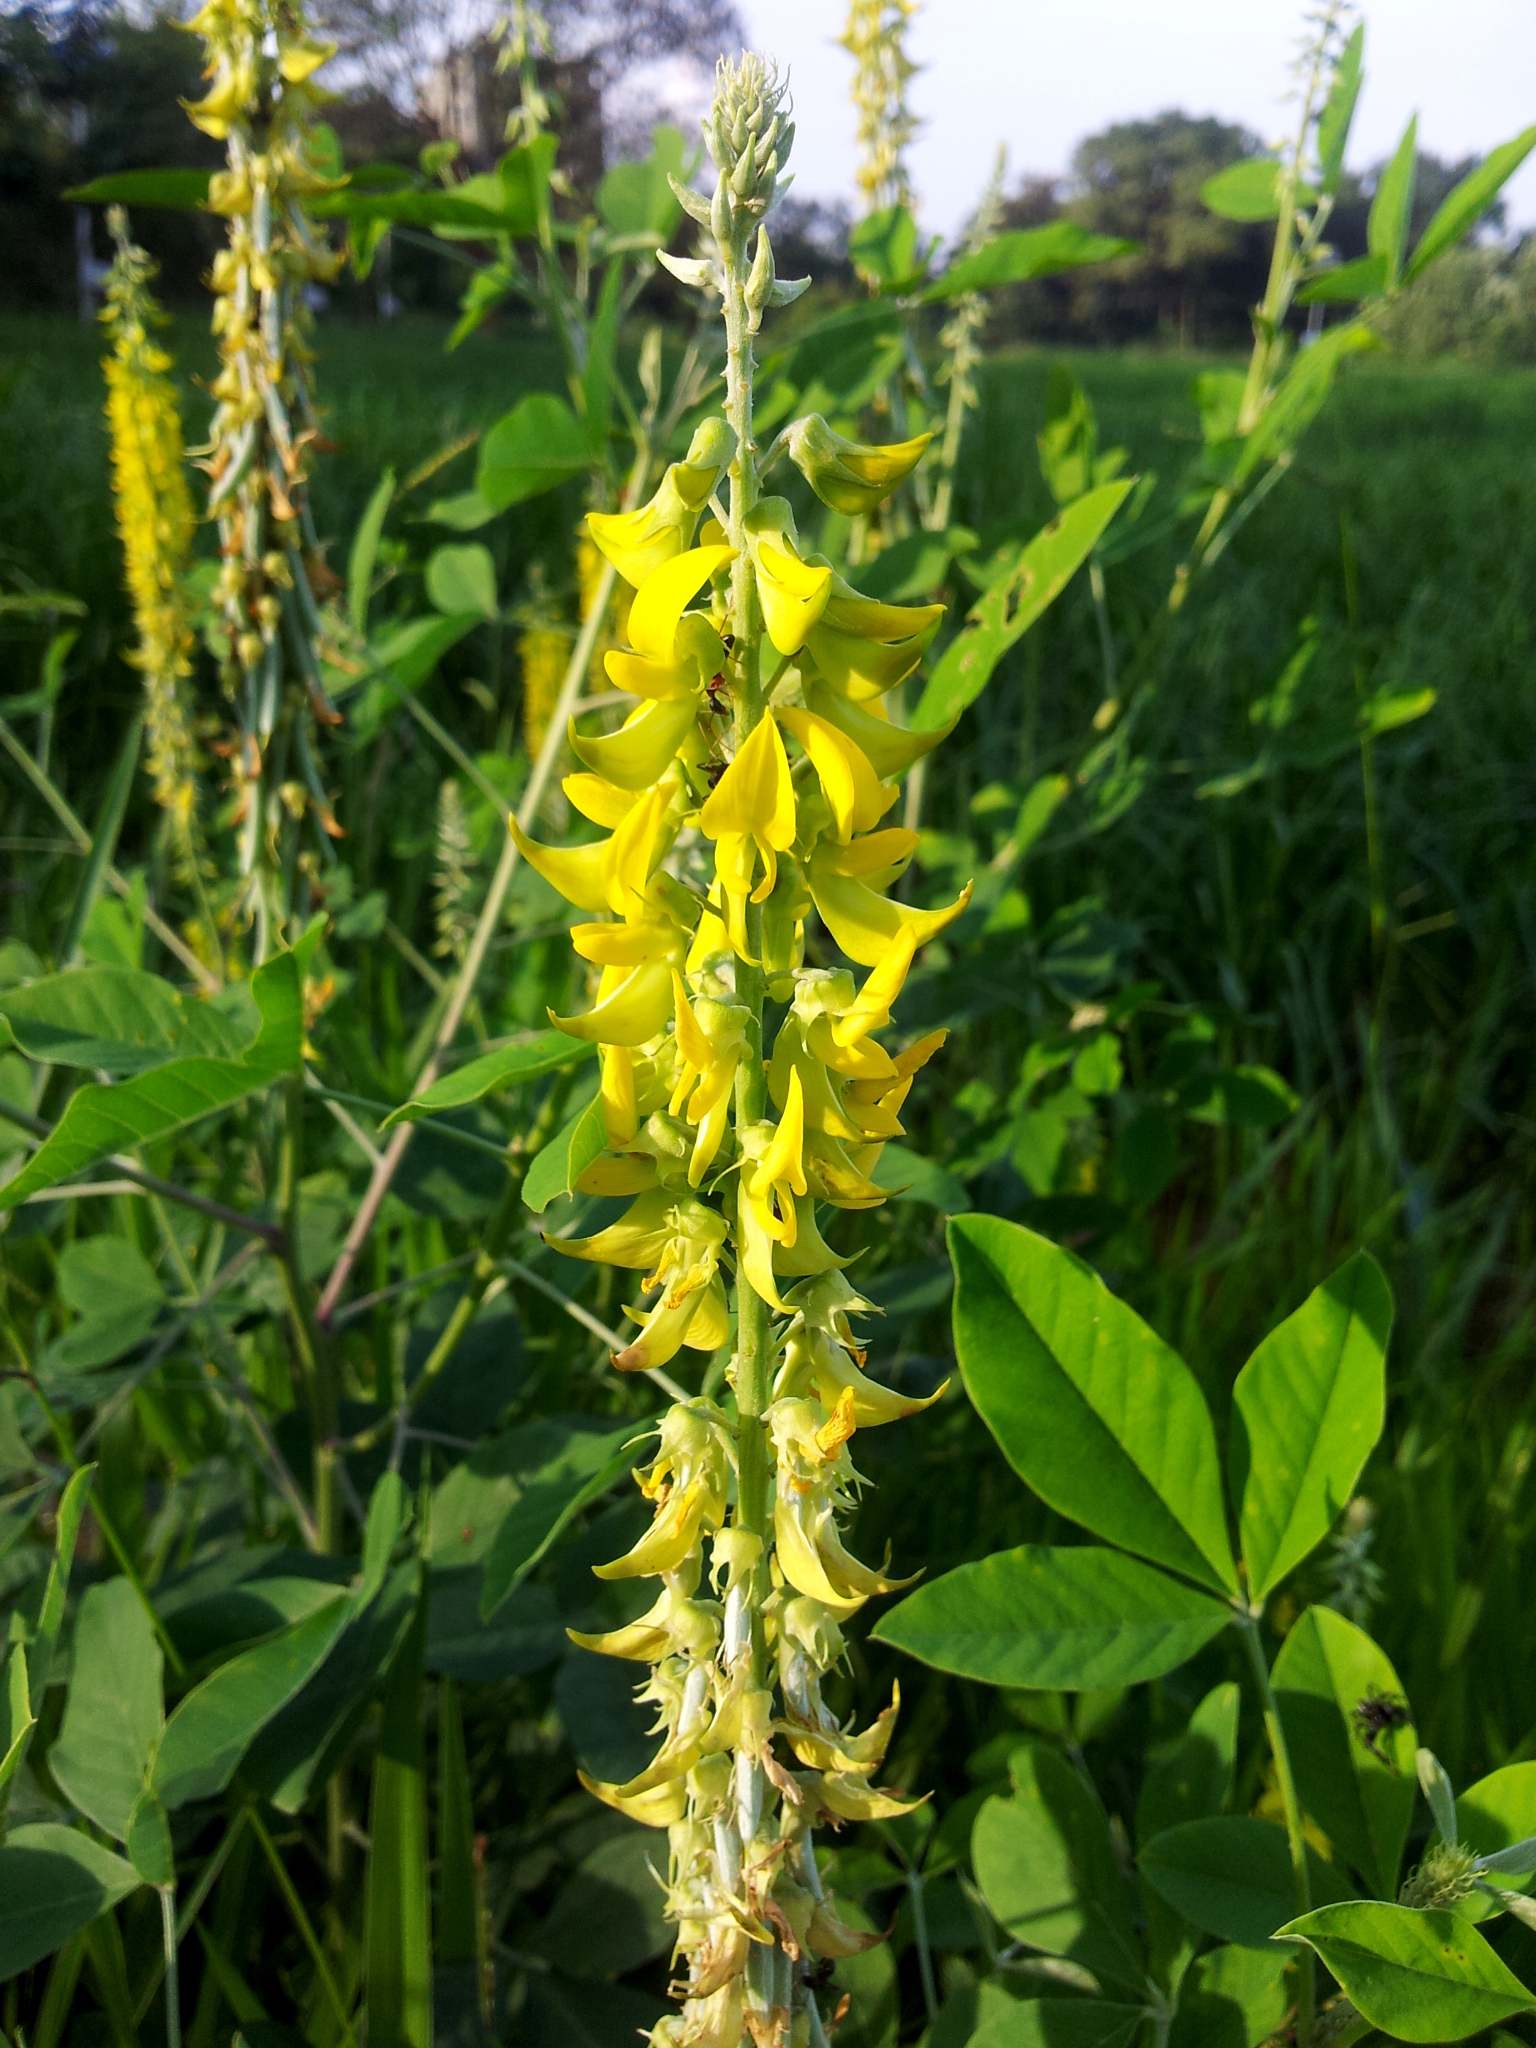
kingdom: Plantae
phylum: Tracheophyta
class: Magnoliopsida
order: Fabales
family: Fabaceae
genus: Crotalaria
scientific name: Crotalaria pallida
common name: Smooth rattlebox
